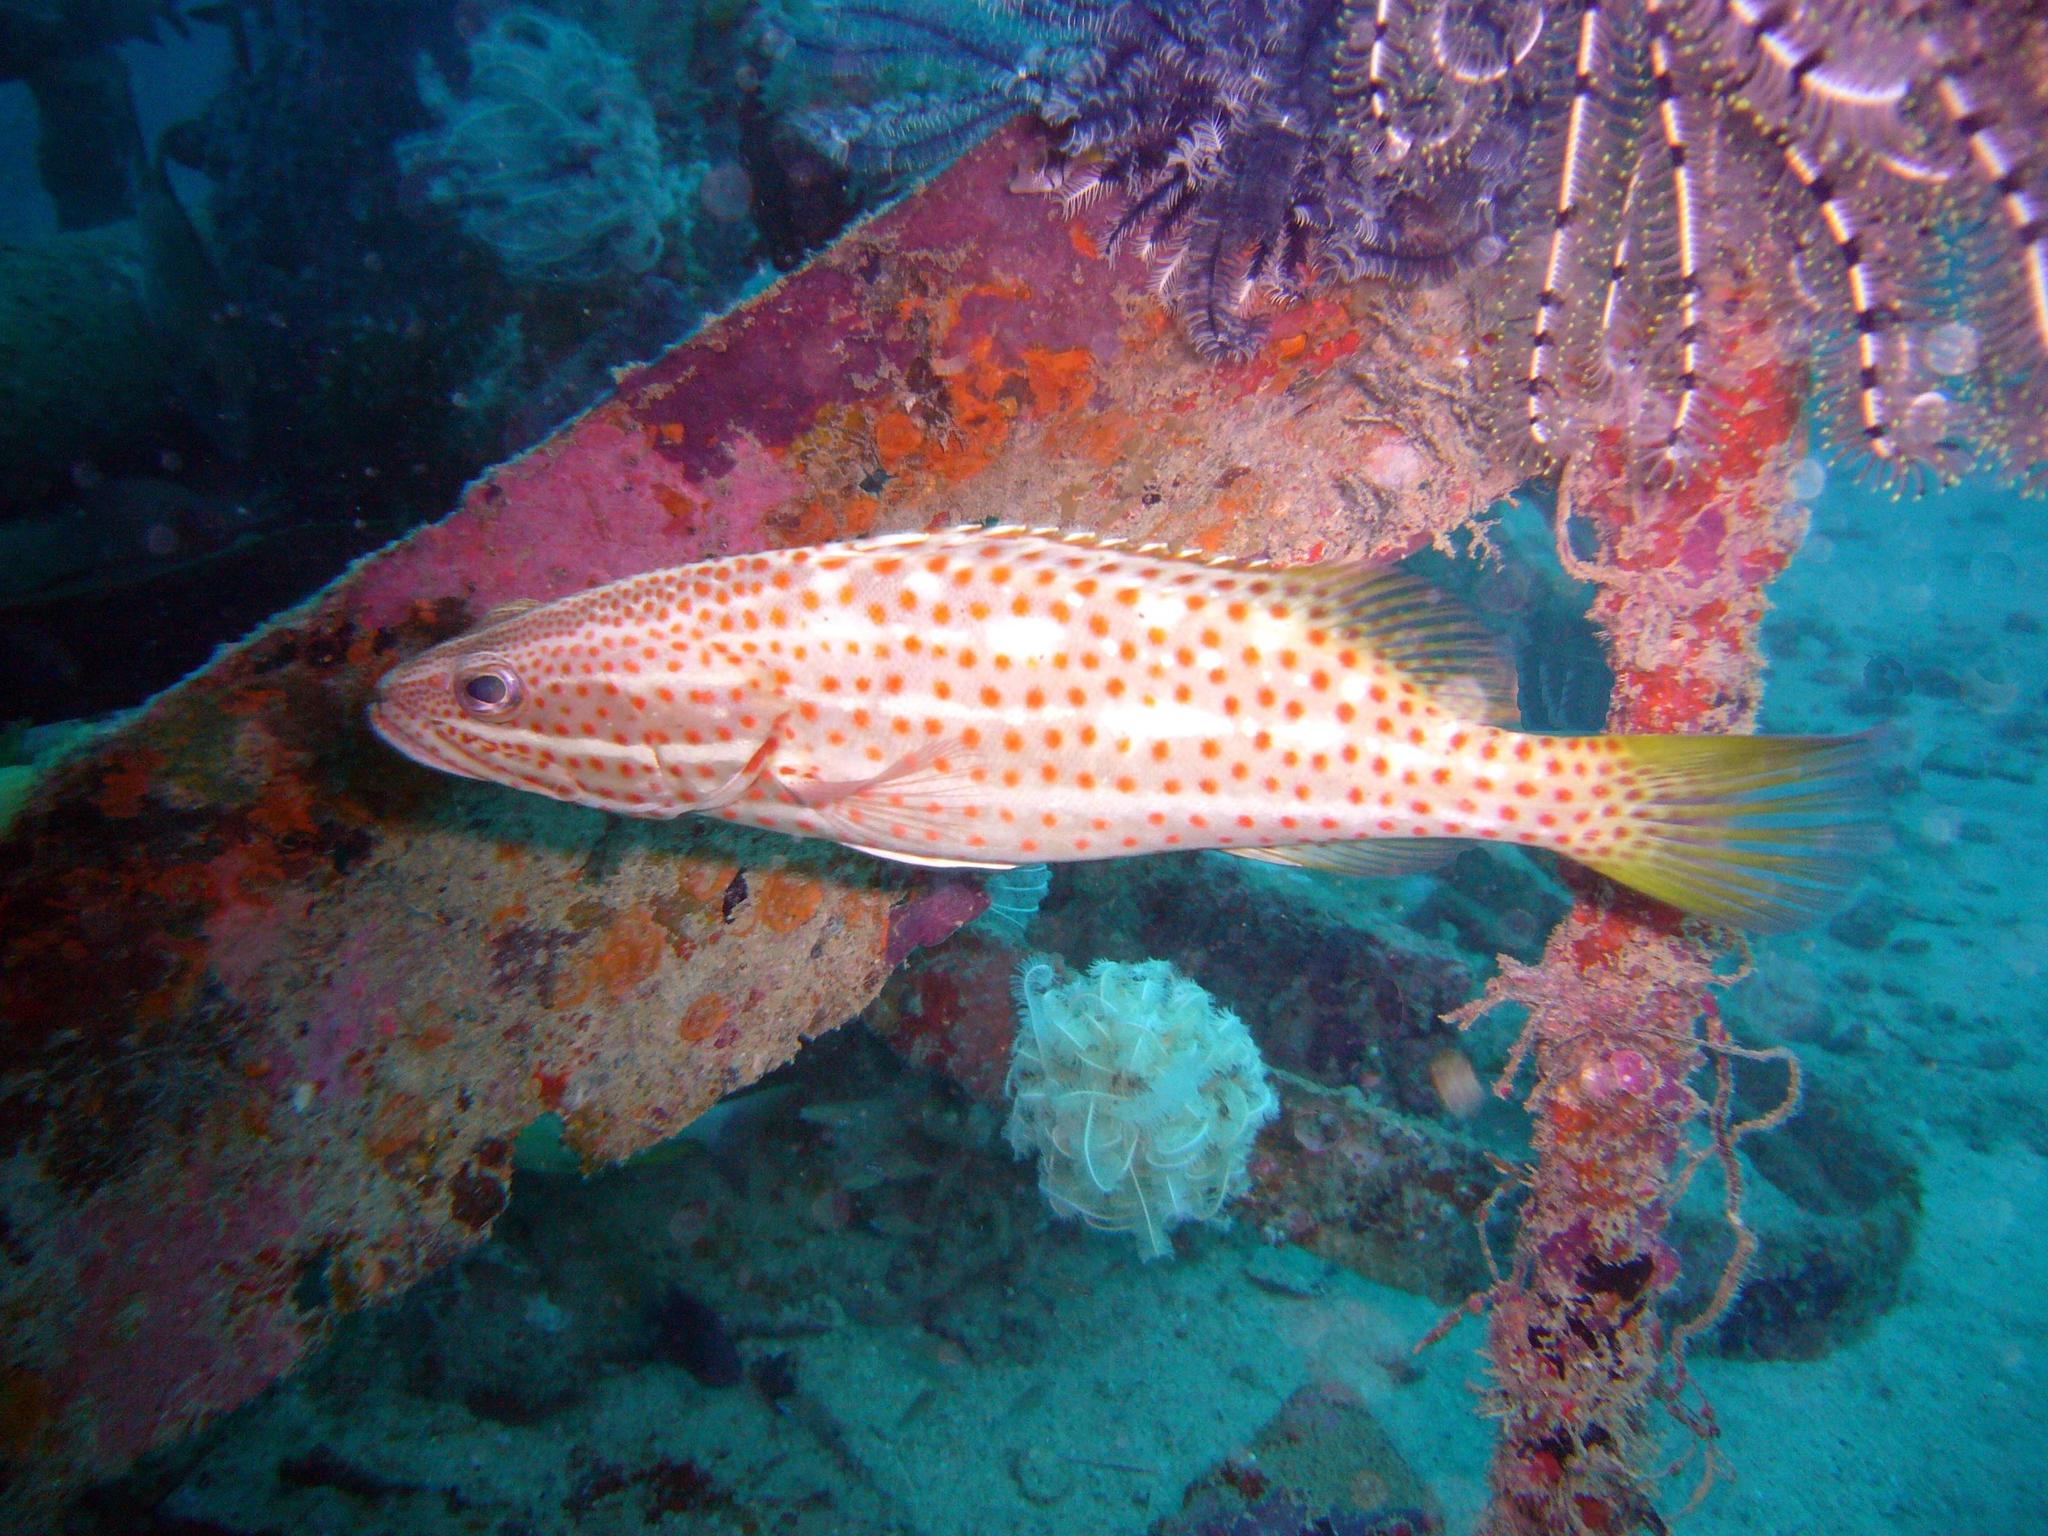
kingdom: Animalia
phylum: Chordata
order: Perciformes
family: Serranidae
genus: Anyperodon
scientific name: Anyperodon leucogrammicus
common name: Slender grouper
